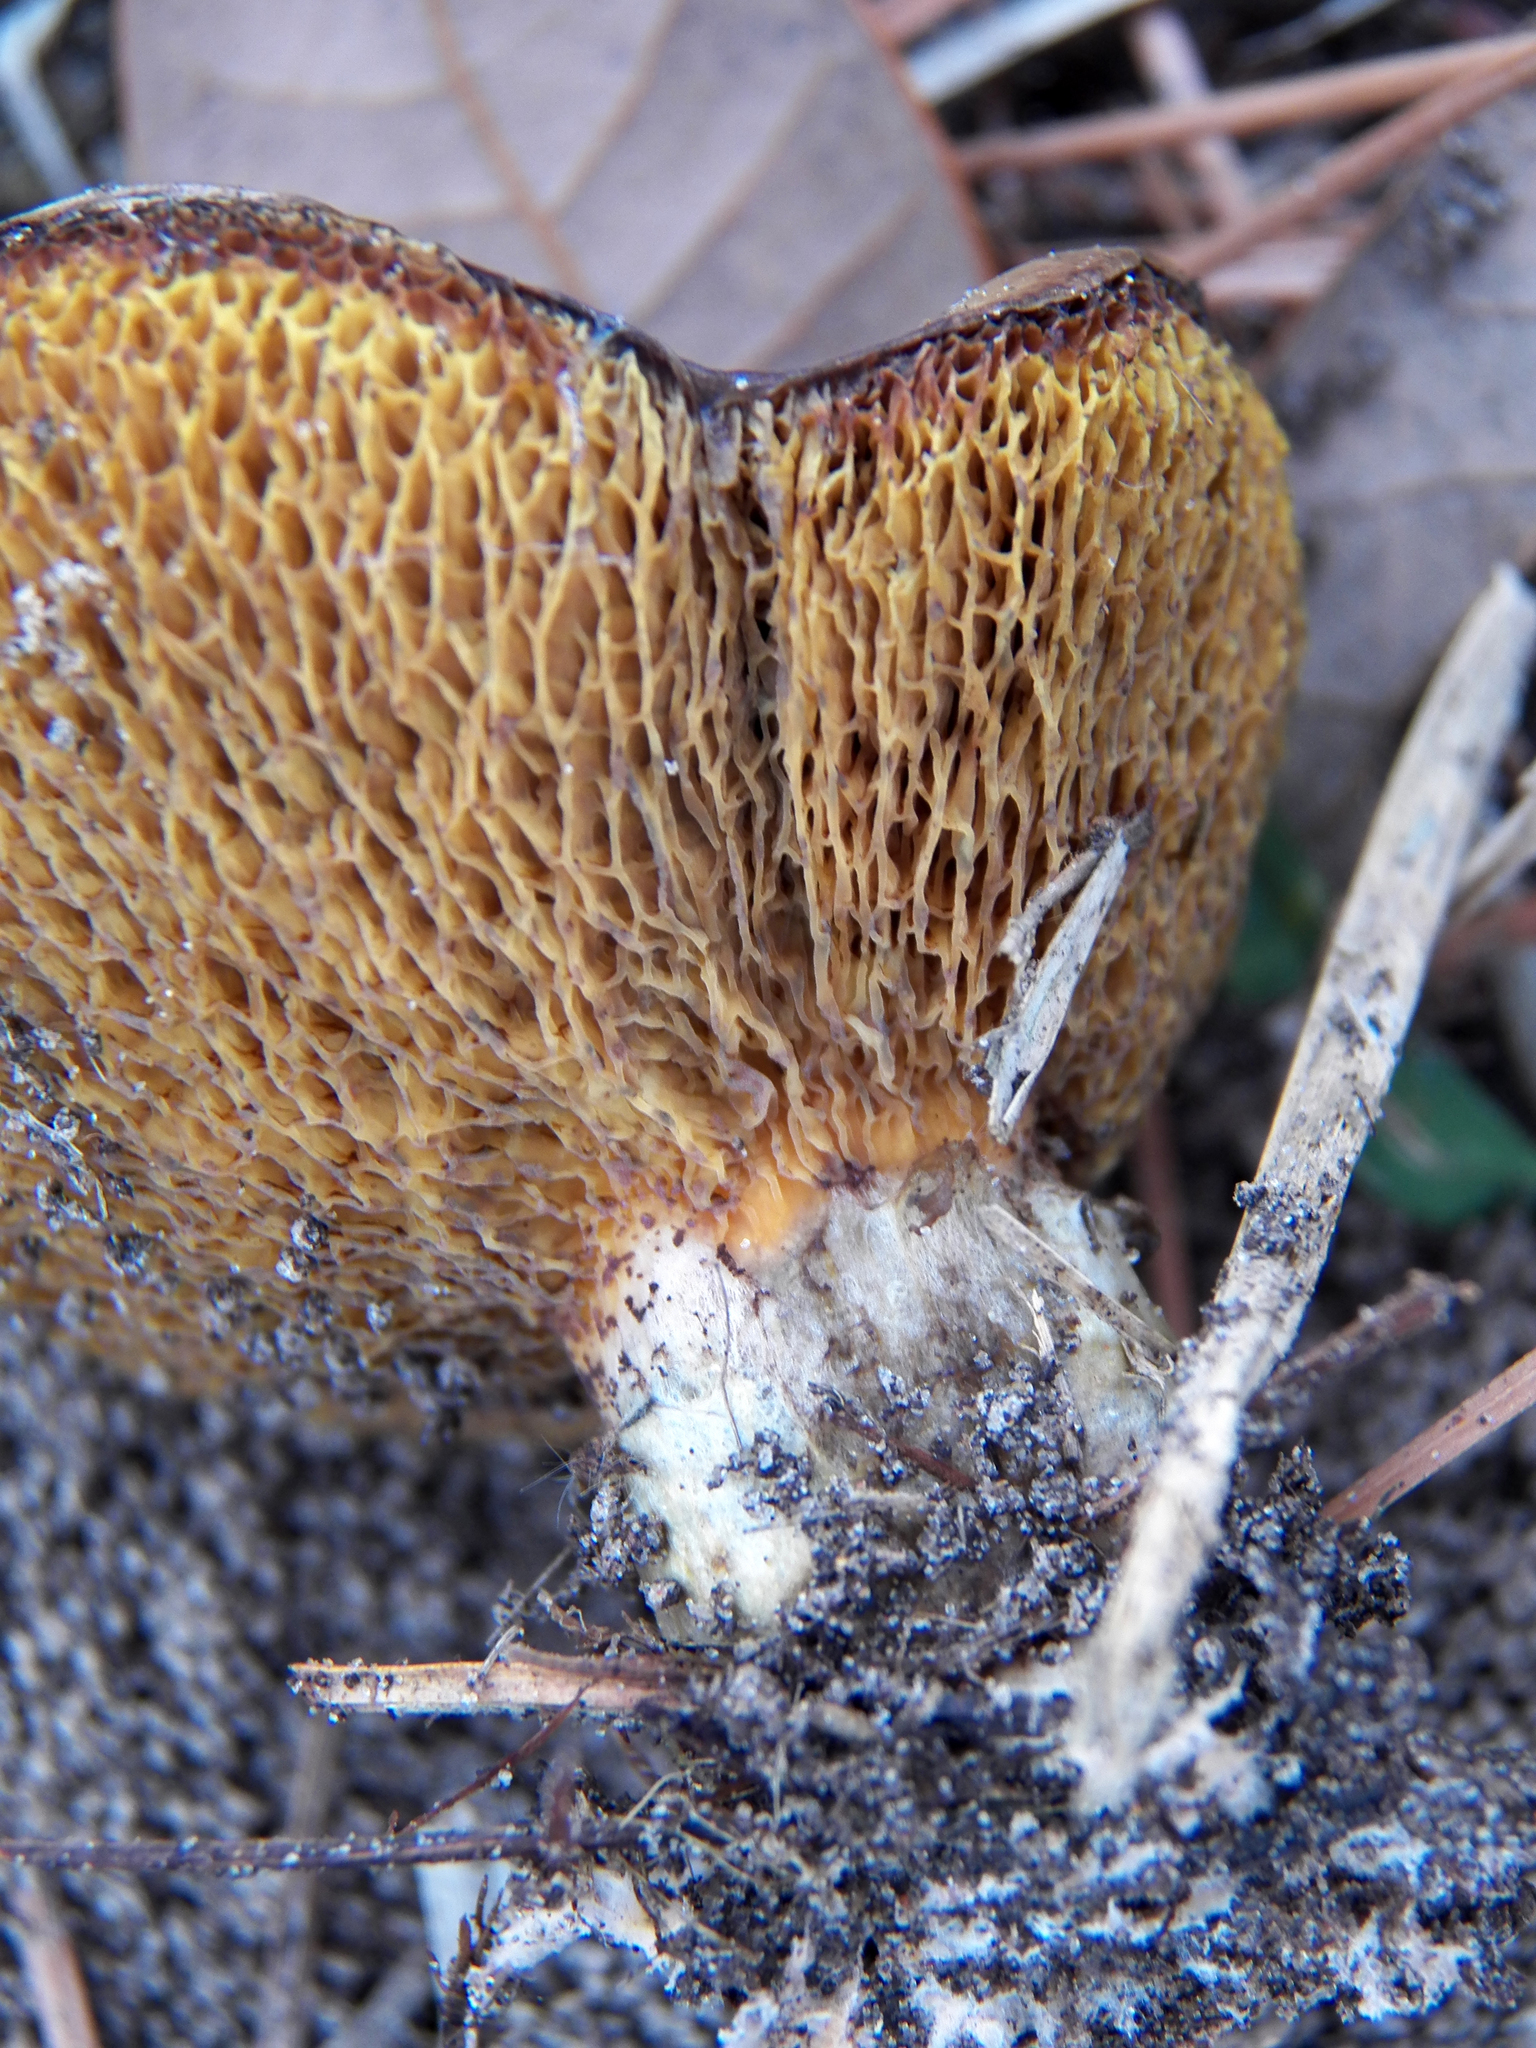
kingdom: Fungi
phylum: Basidiomycota
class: Agaricomycetes
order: Boletales
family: Boletinellaceae
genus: Boletinellus
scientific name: Boletinellus merulioides
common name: Ash tree bolete
